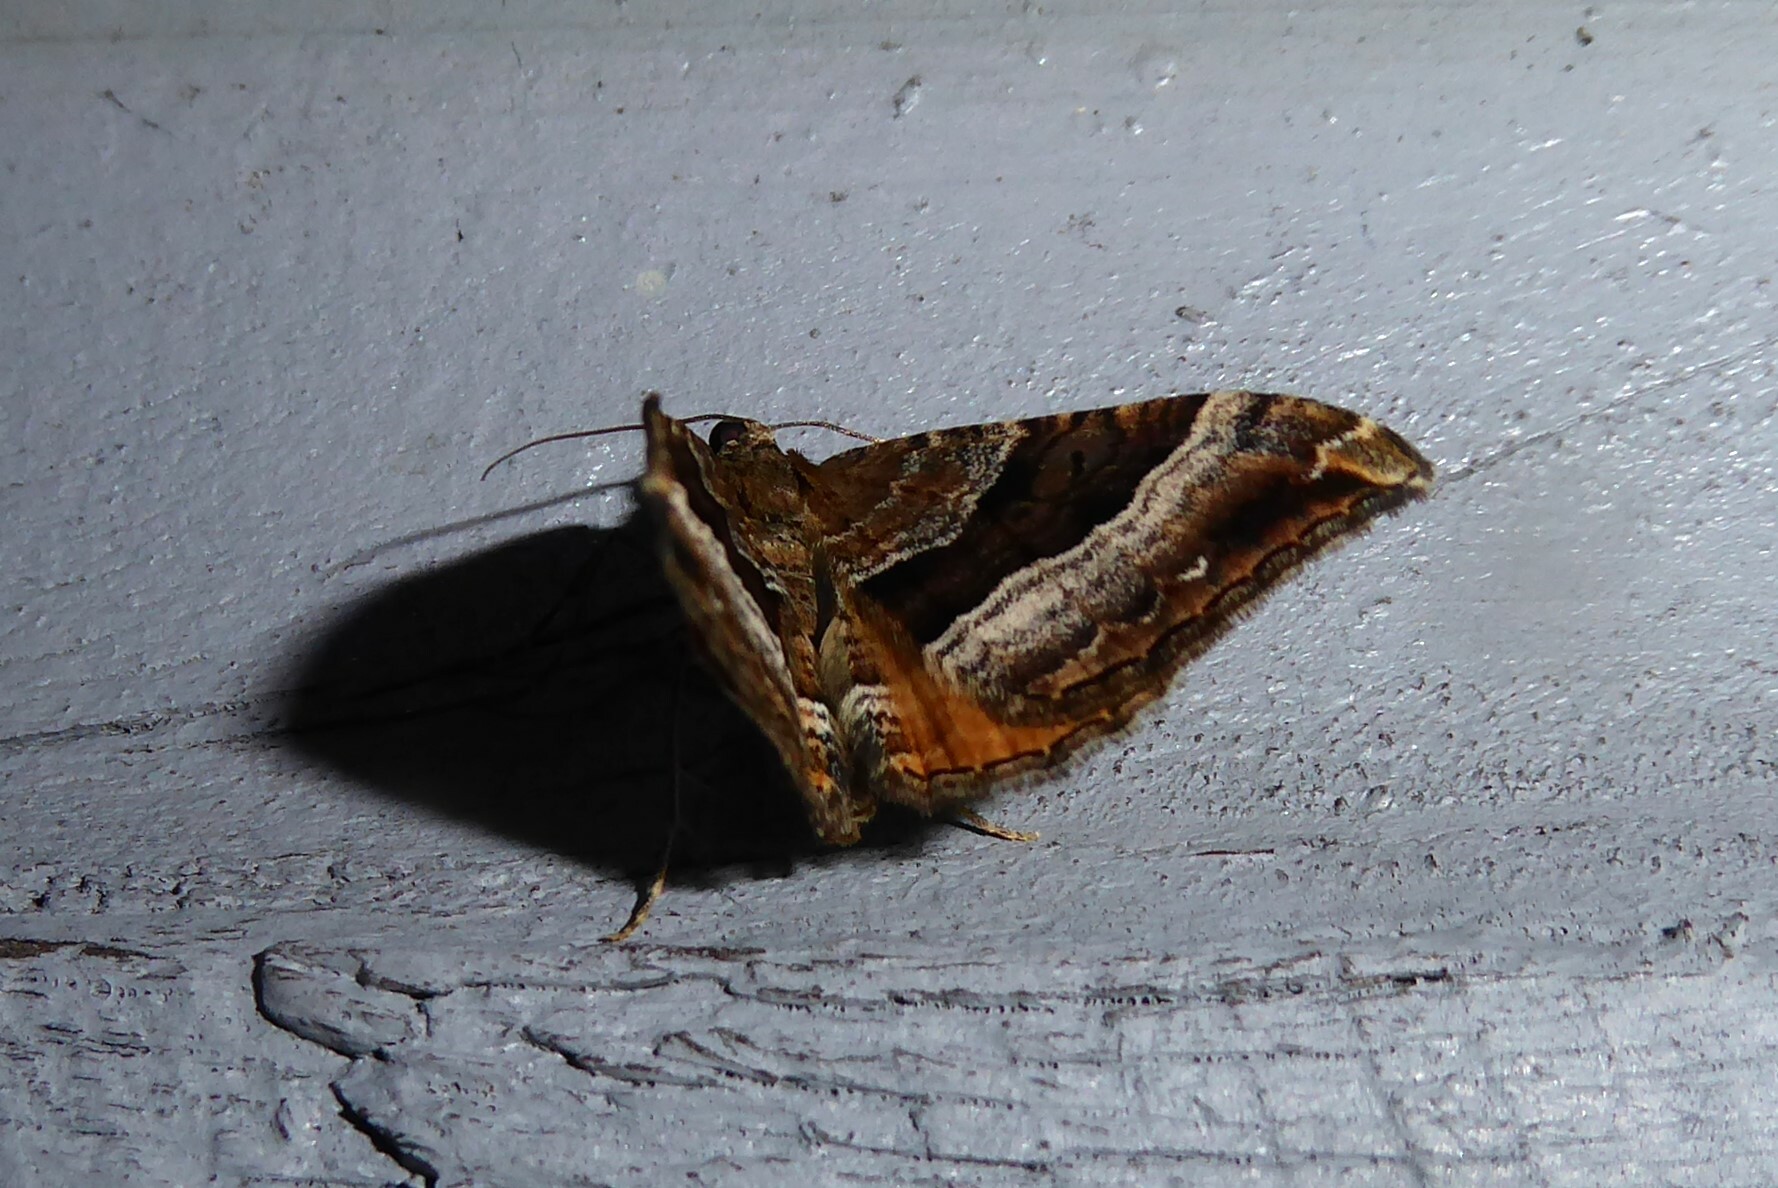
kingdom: Animalia
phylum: Arthropoda
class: Insecta
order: Lepidoptera
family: Geometridae
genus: Hydriomena
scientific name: Hydriomena deltoidata
